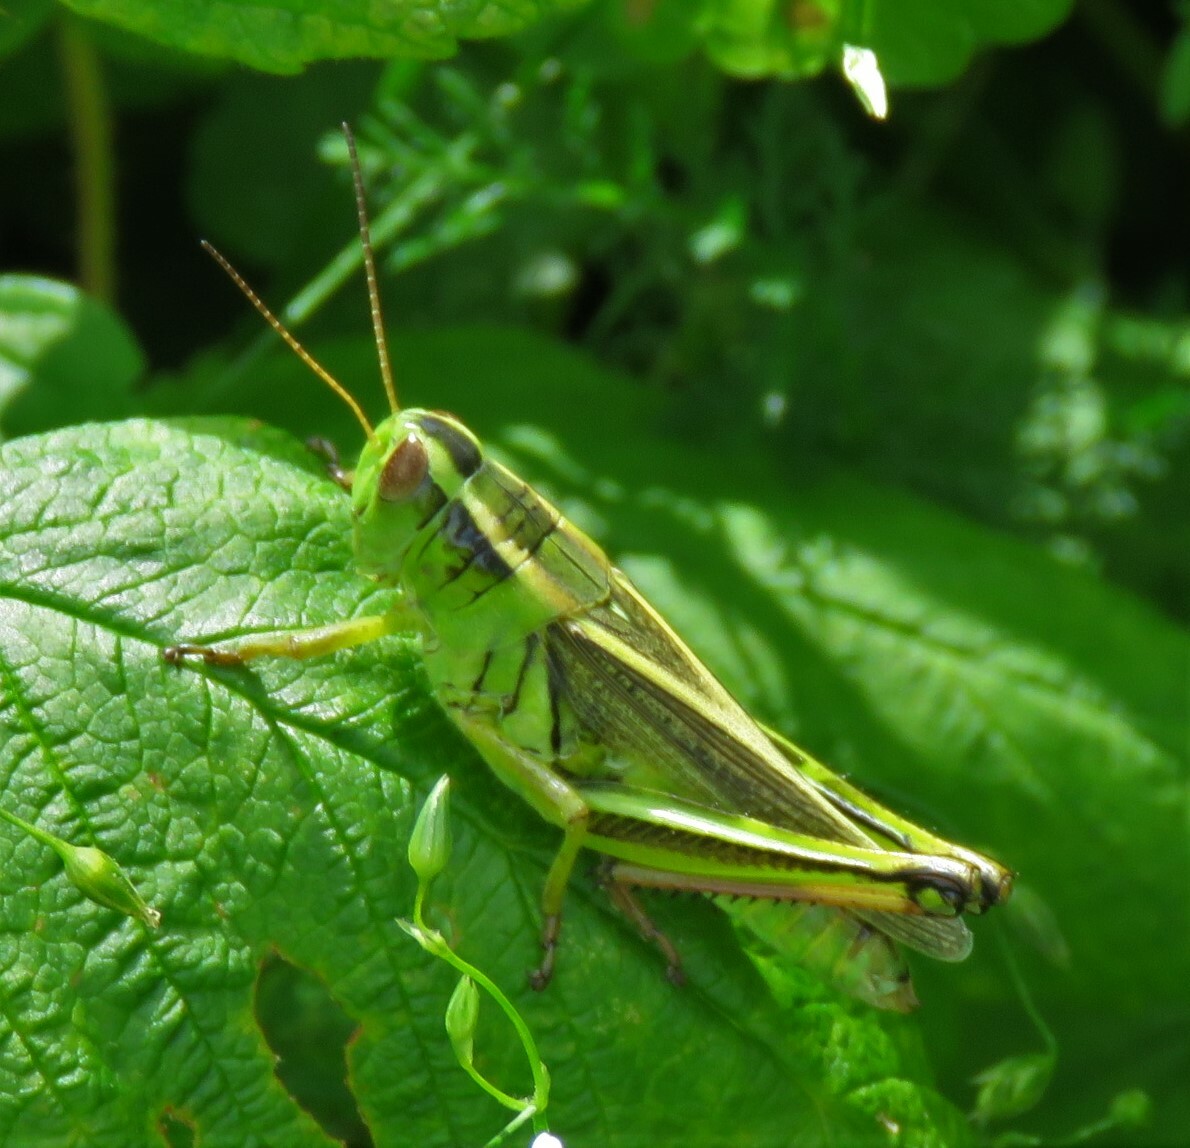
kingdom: Animalia
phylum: Arthropoda
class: Insecta
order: Orthoptera
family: Acrididae
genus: Melanoplus
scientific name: Melanoplus bivittatus
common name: Two-striped grasshopper
